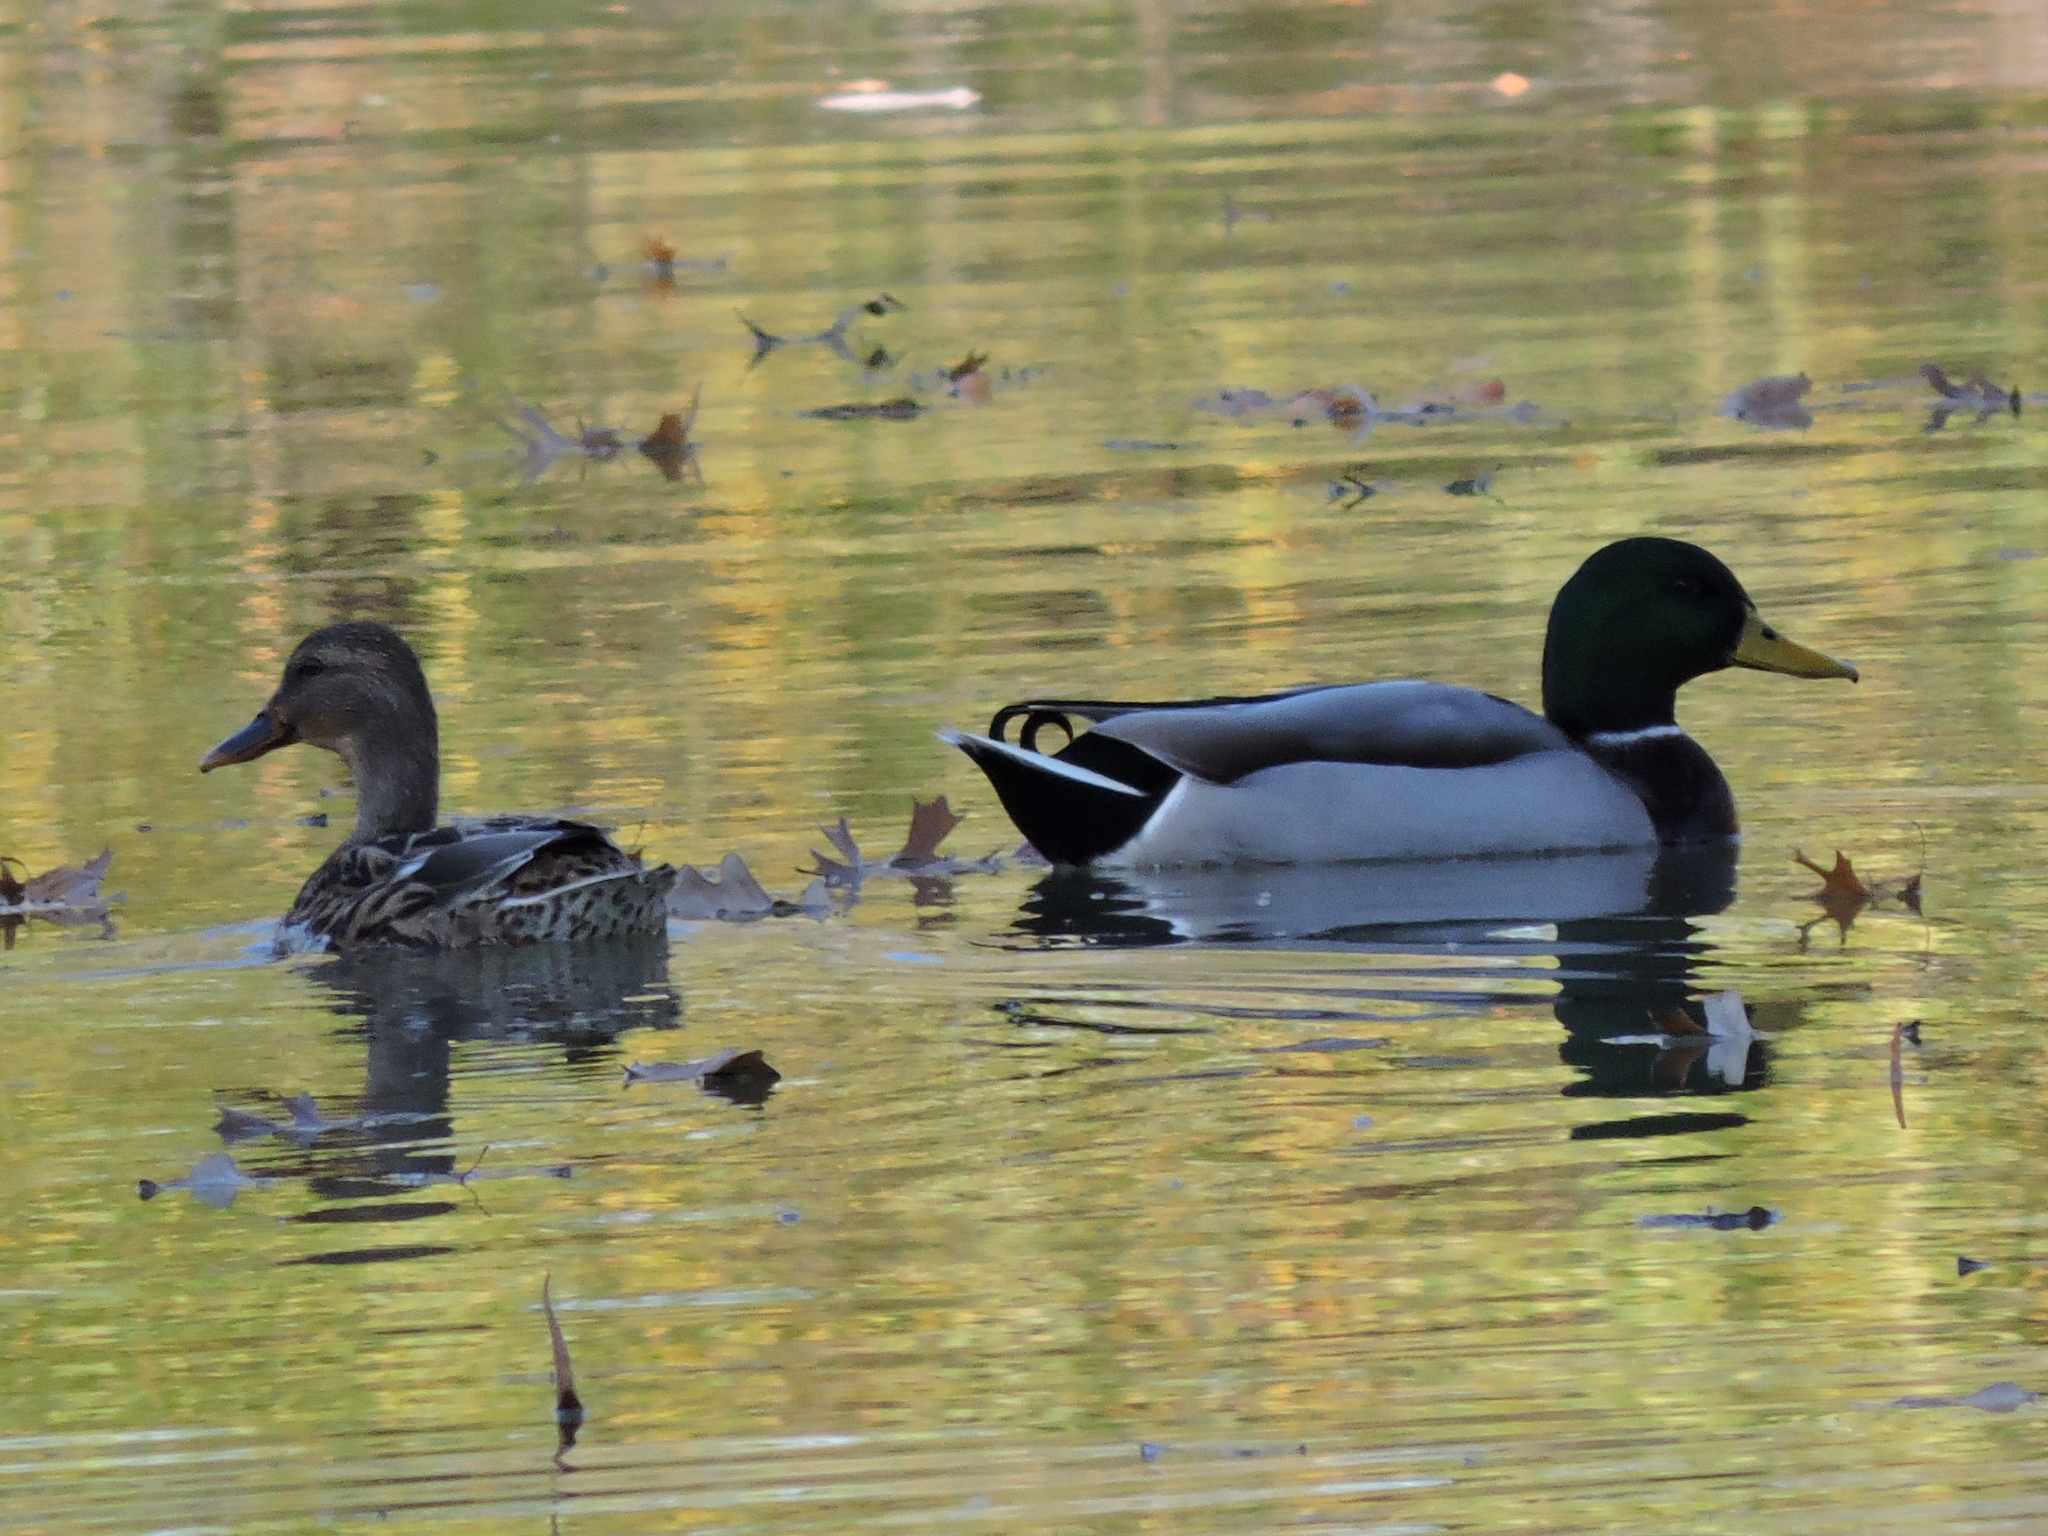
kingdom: Animalia
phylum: Chordata
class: Aves
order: Anseriformes
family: Anatidae
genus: Anas
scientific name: Anas platyrhynchos
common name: Mallard
